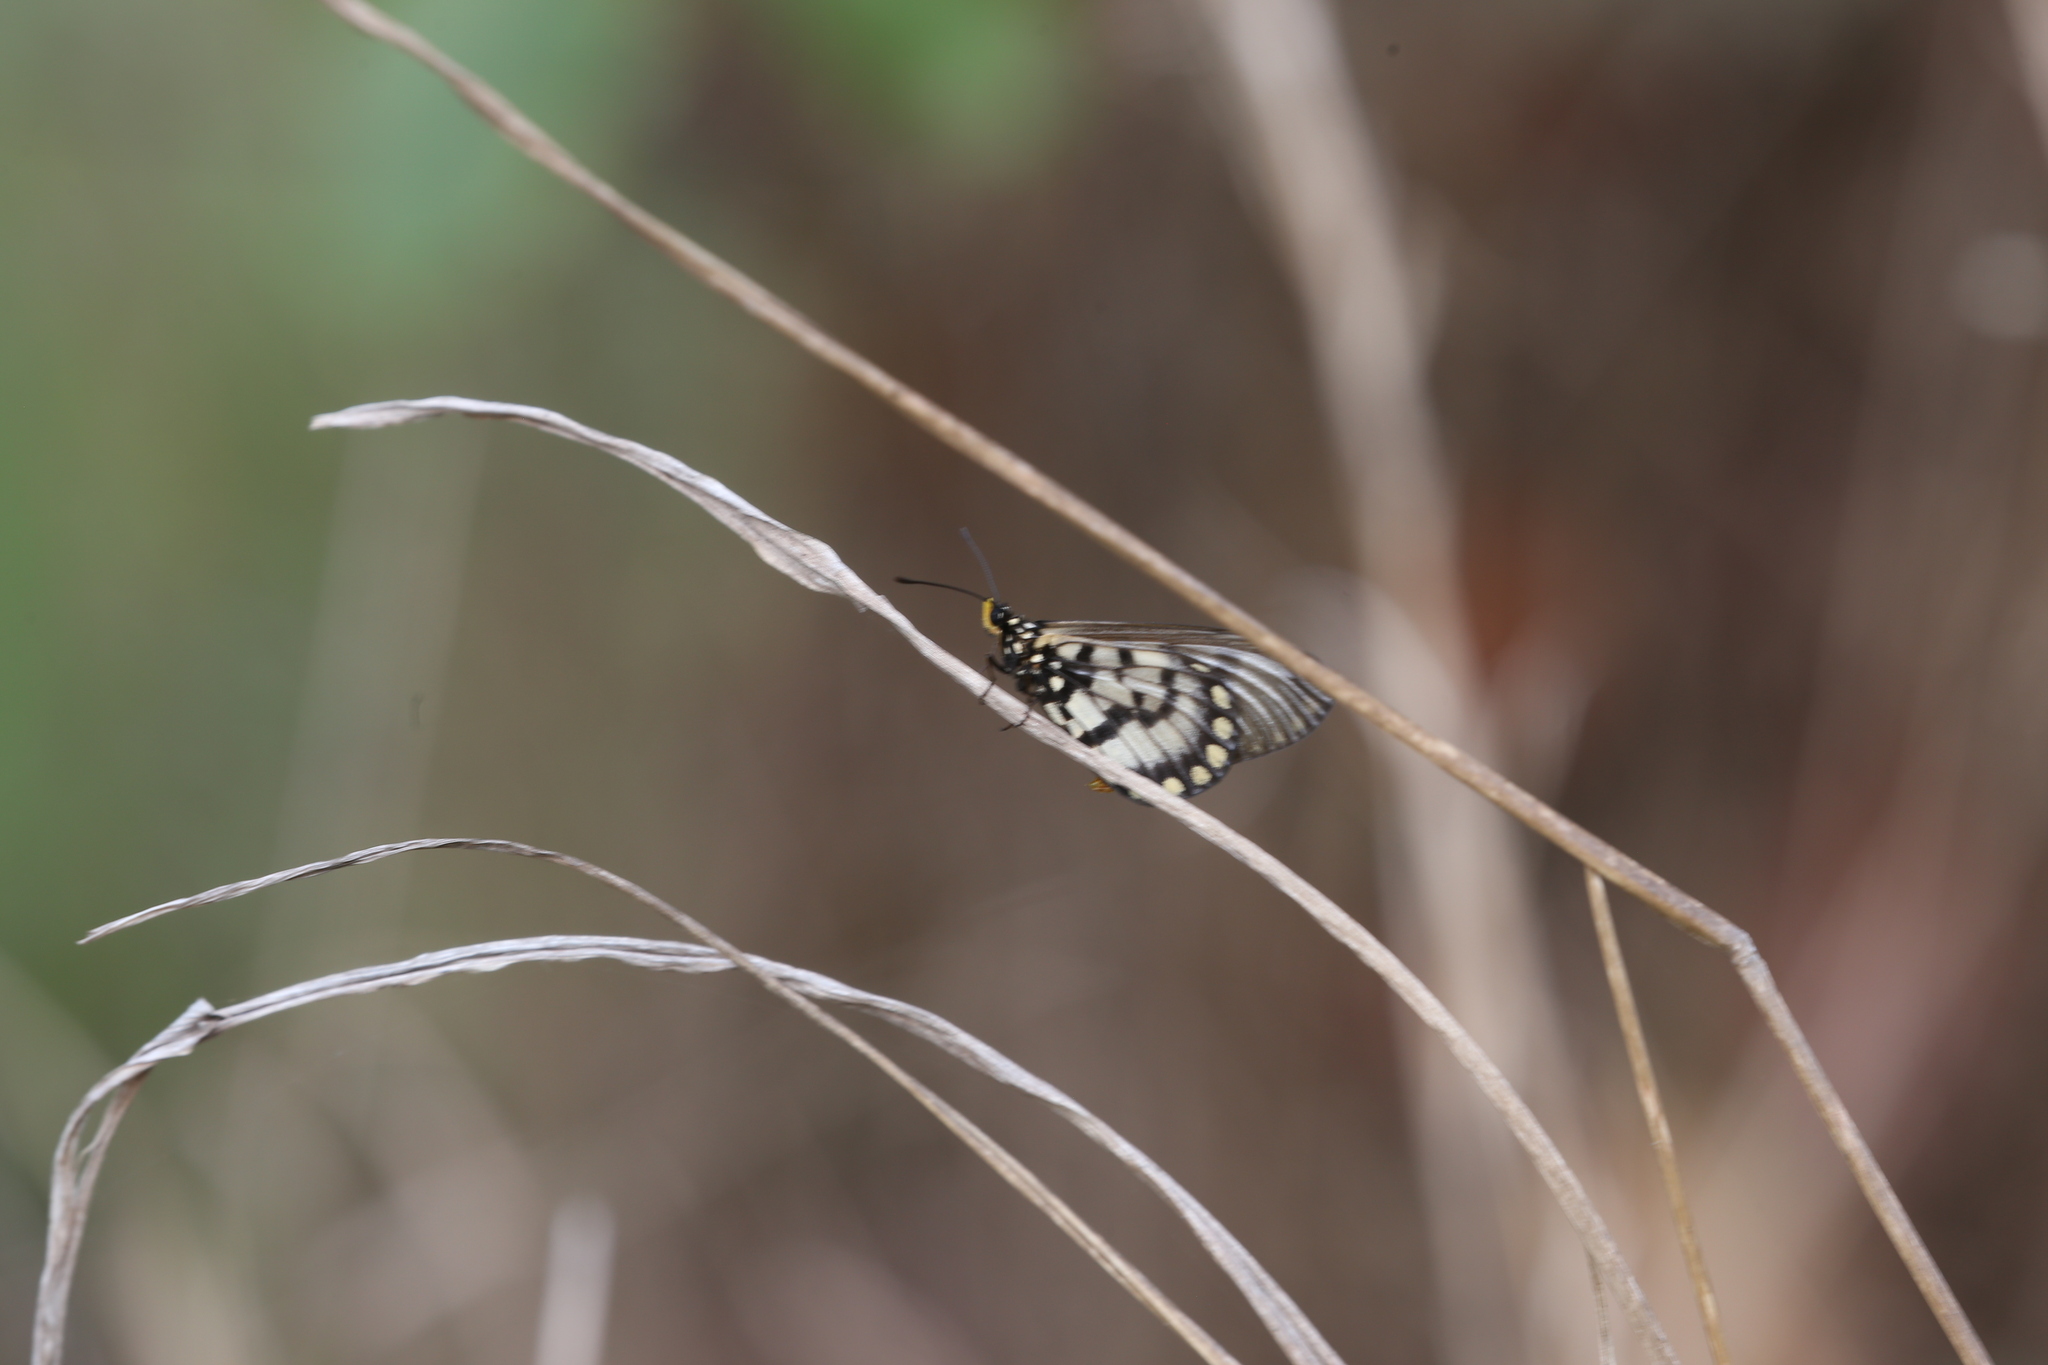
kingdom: Animalia
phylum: Arthropoda
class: Insecta
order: Lepidoptera
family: Nymphalidae
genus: Acraea
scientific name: Acraea andromacha
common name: Glasswing
